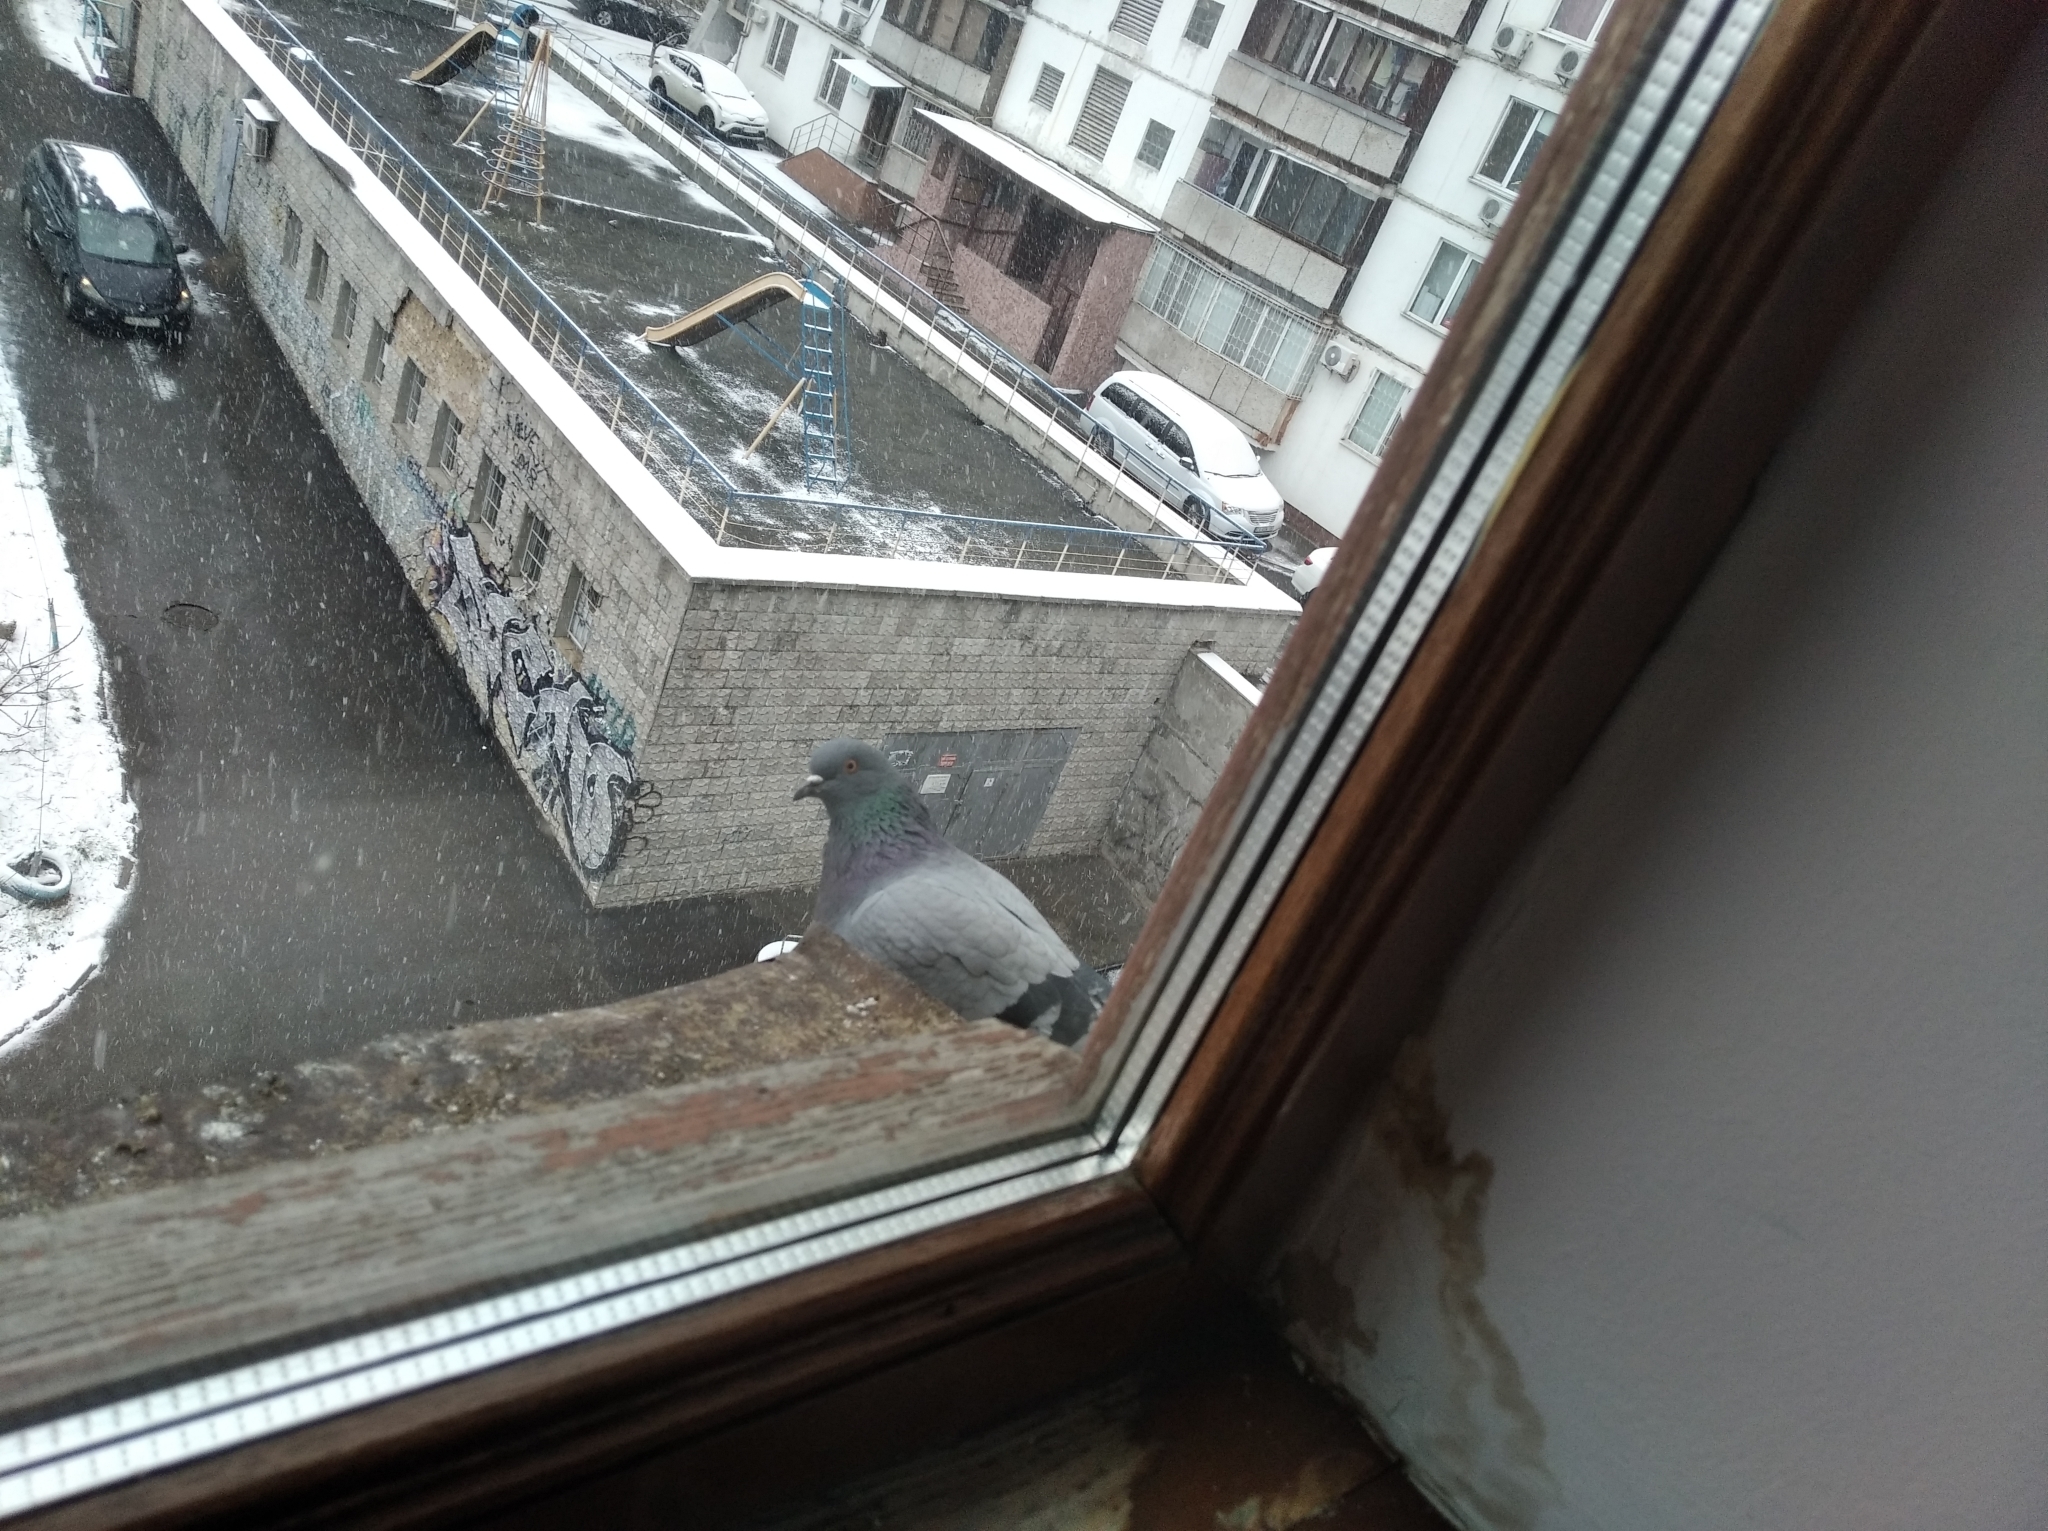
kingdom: Animalia
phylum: Chordata
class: Aves
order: Columbiformes
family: Columbidae
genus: Columba
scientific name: Columba livia
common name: Rock pigeon
